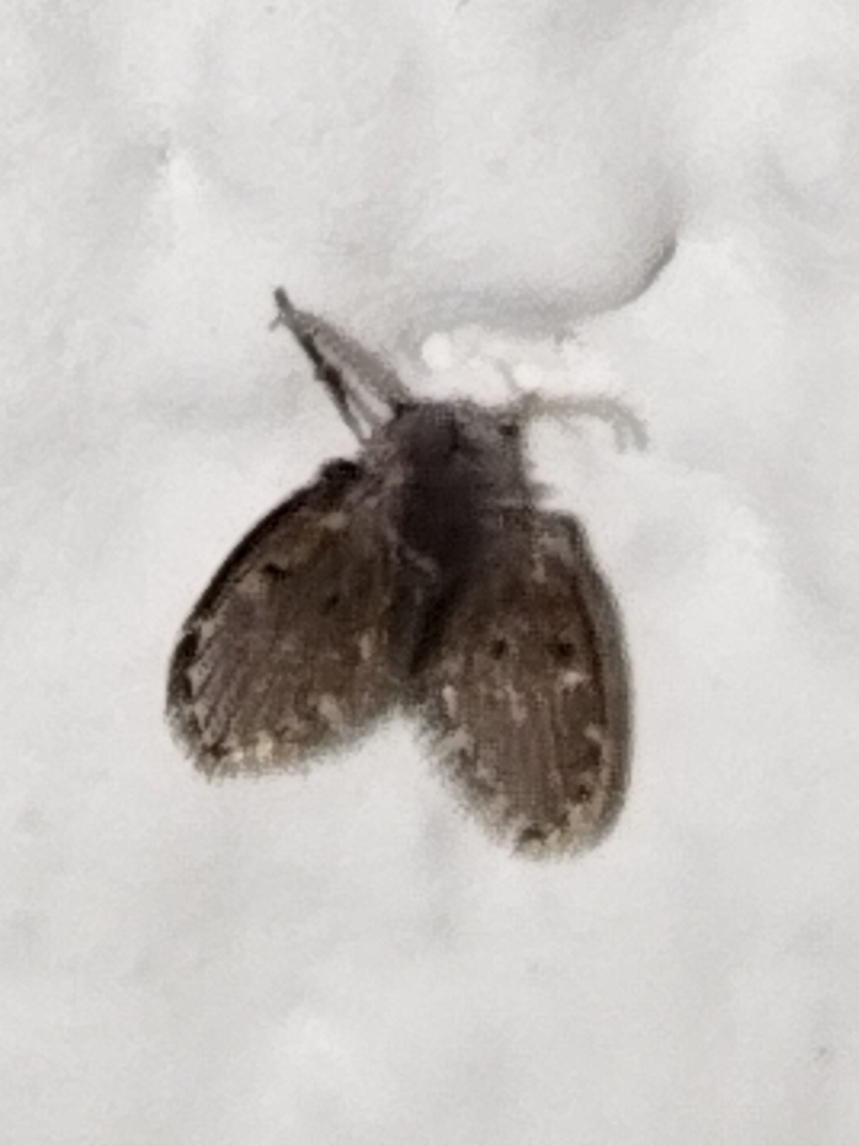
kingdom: Animalia
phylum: Arthropoda
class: Insecta
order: Diptera
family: Psychodidae
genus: Clogmia
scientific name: Clogmia albipunctatus
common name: White-spotted moth fly
